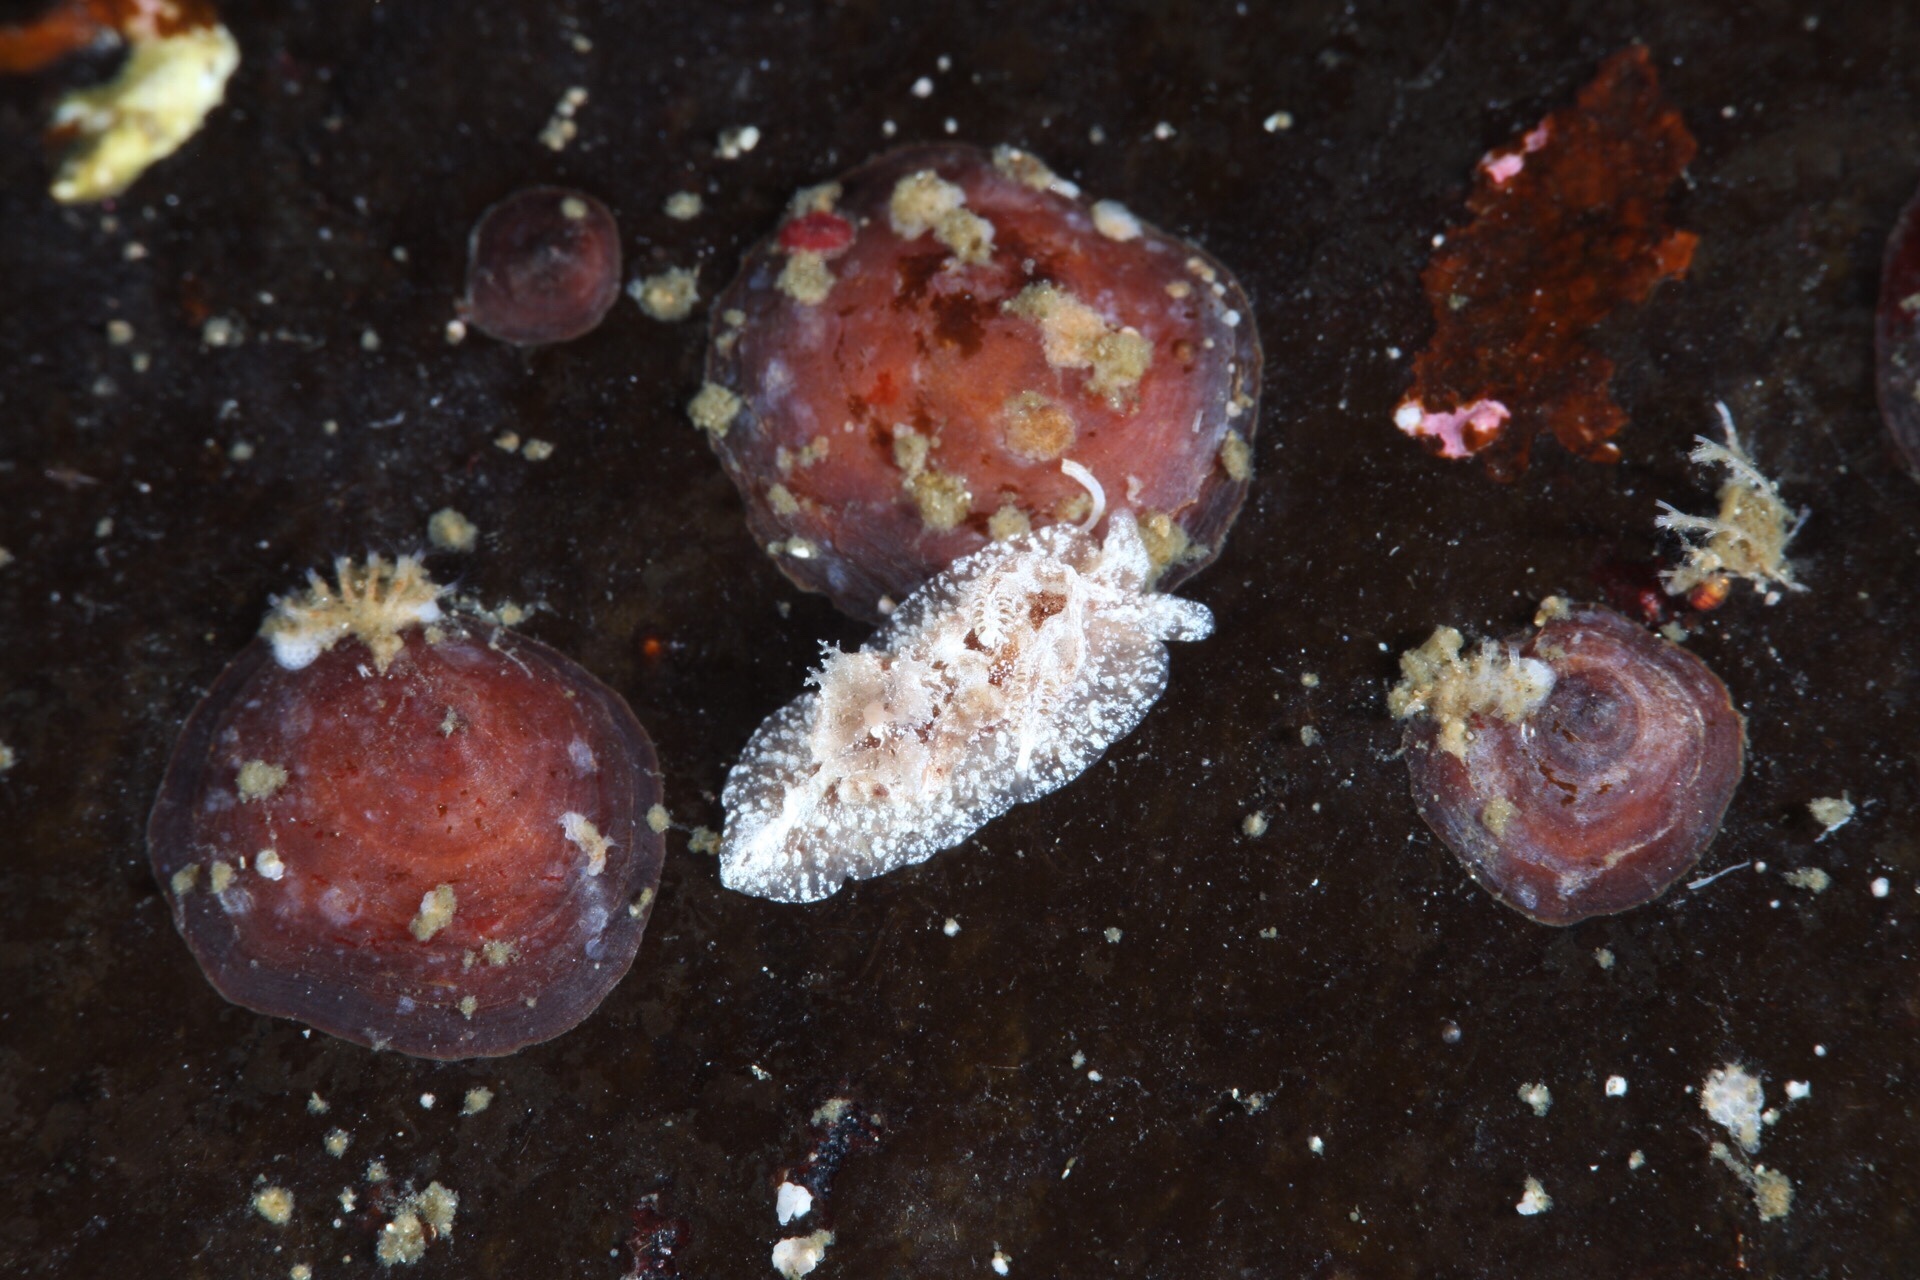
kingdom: Animalia
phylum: Mollusca
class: Gastropoda
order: Nudibranchia
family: Goniodorididae
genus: Pelagella
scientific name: Pelagella castanea
